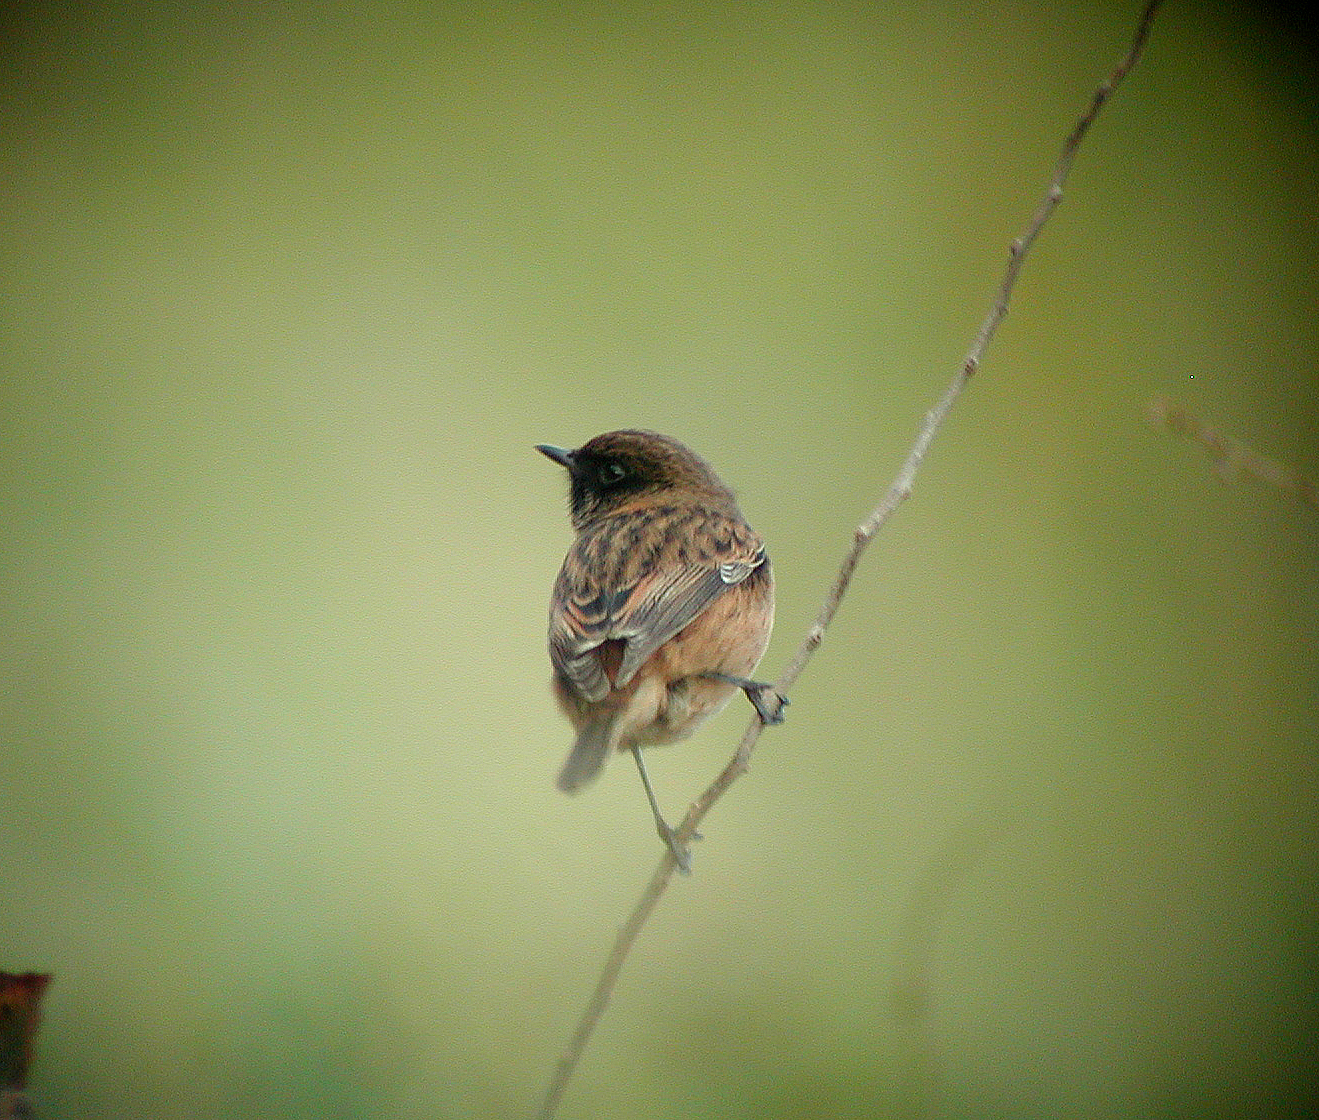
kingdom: Animalia
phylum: Chordata
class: Aves
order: Passeriformes
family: Muscicapidae
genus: Saxicola
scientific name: Saxicola rubicola
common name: European stonechat
